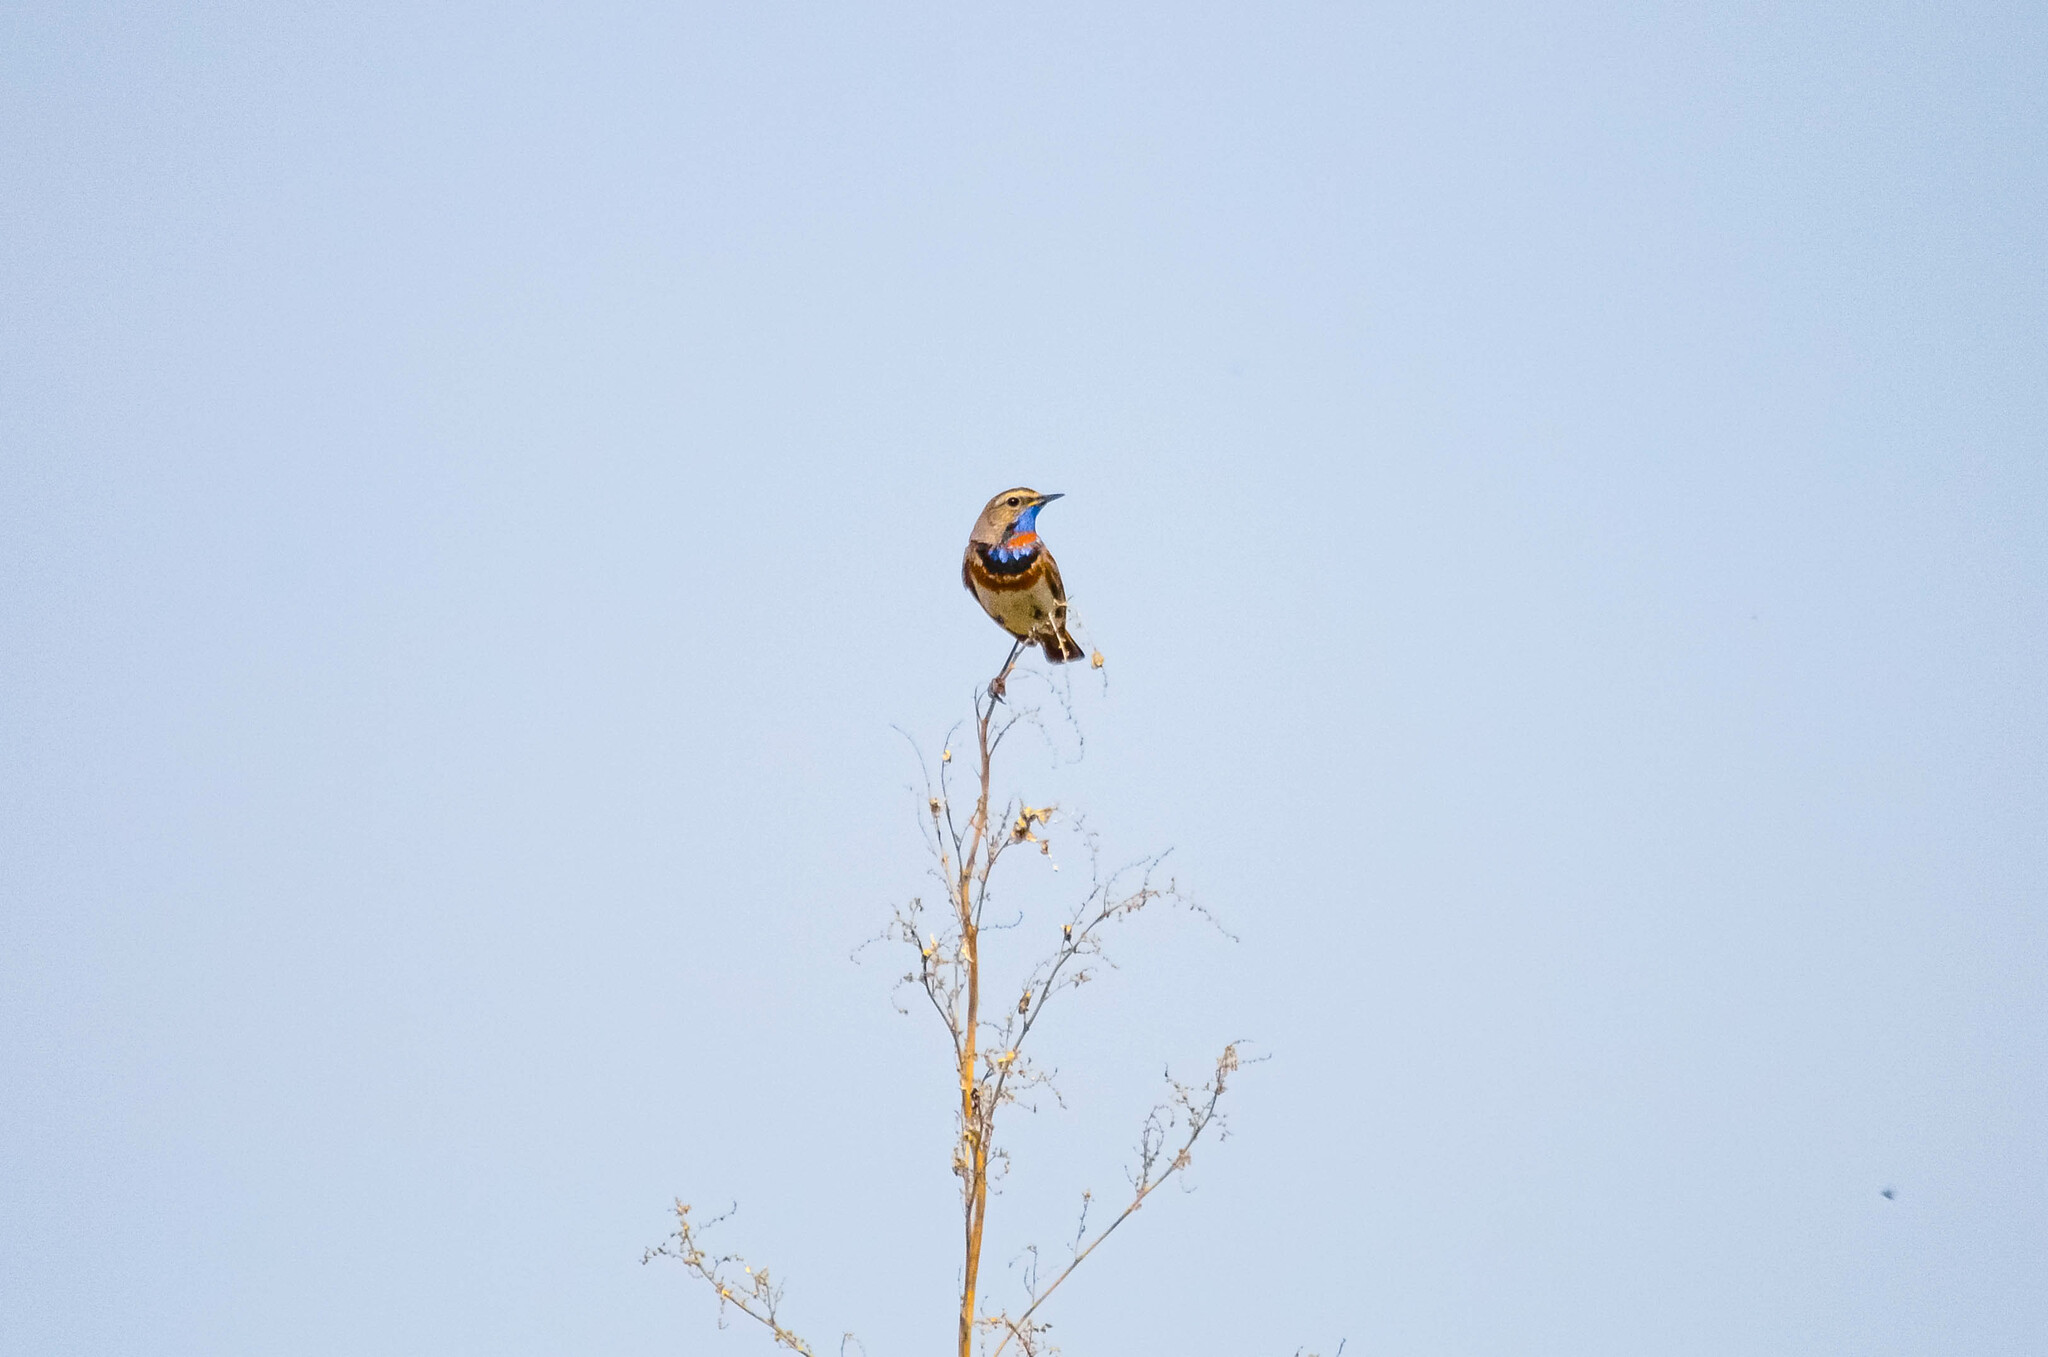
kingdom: Animalia
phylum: Chordata
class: Aves
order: Passeriformes
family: Muscicapidae
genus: Luscinia
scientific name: Luscinia svecica
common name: Bluethroat
